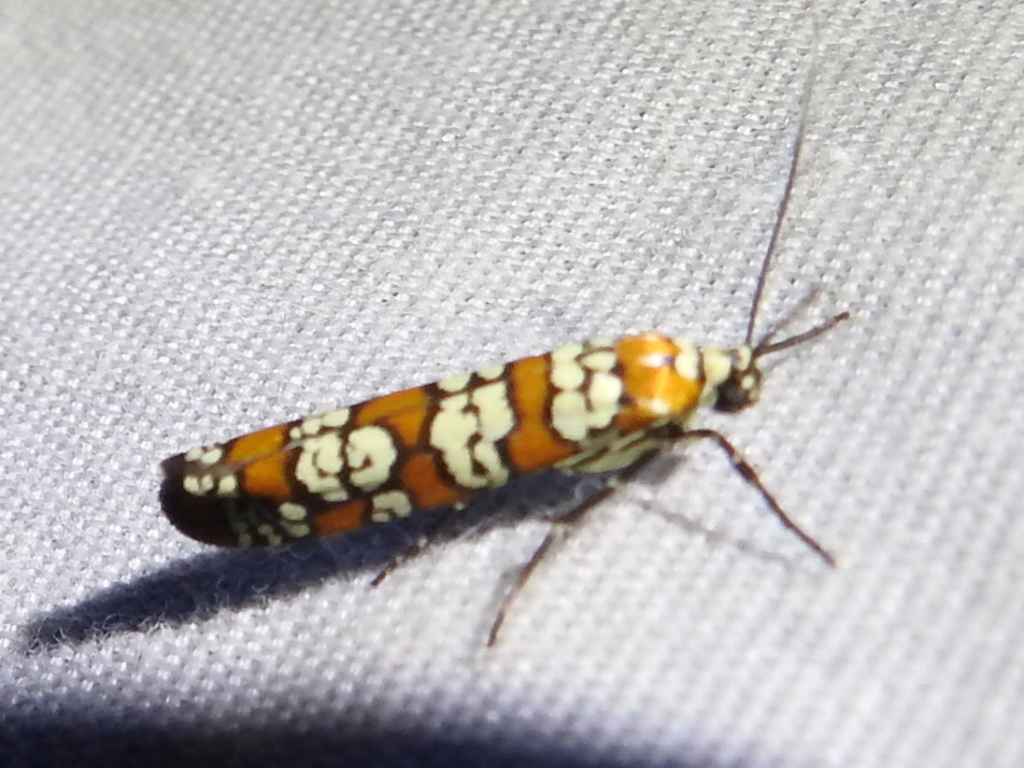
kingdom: Animalia
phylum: Arthropoda
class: Insecta
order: Lepidoptera
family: Attevidae
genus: Atteva
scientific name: Atteva punctella
